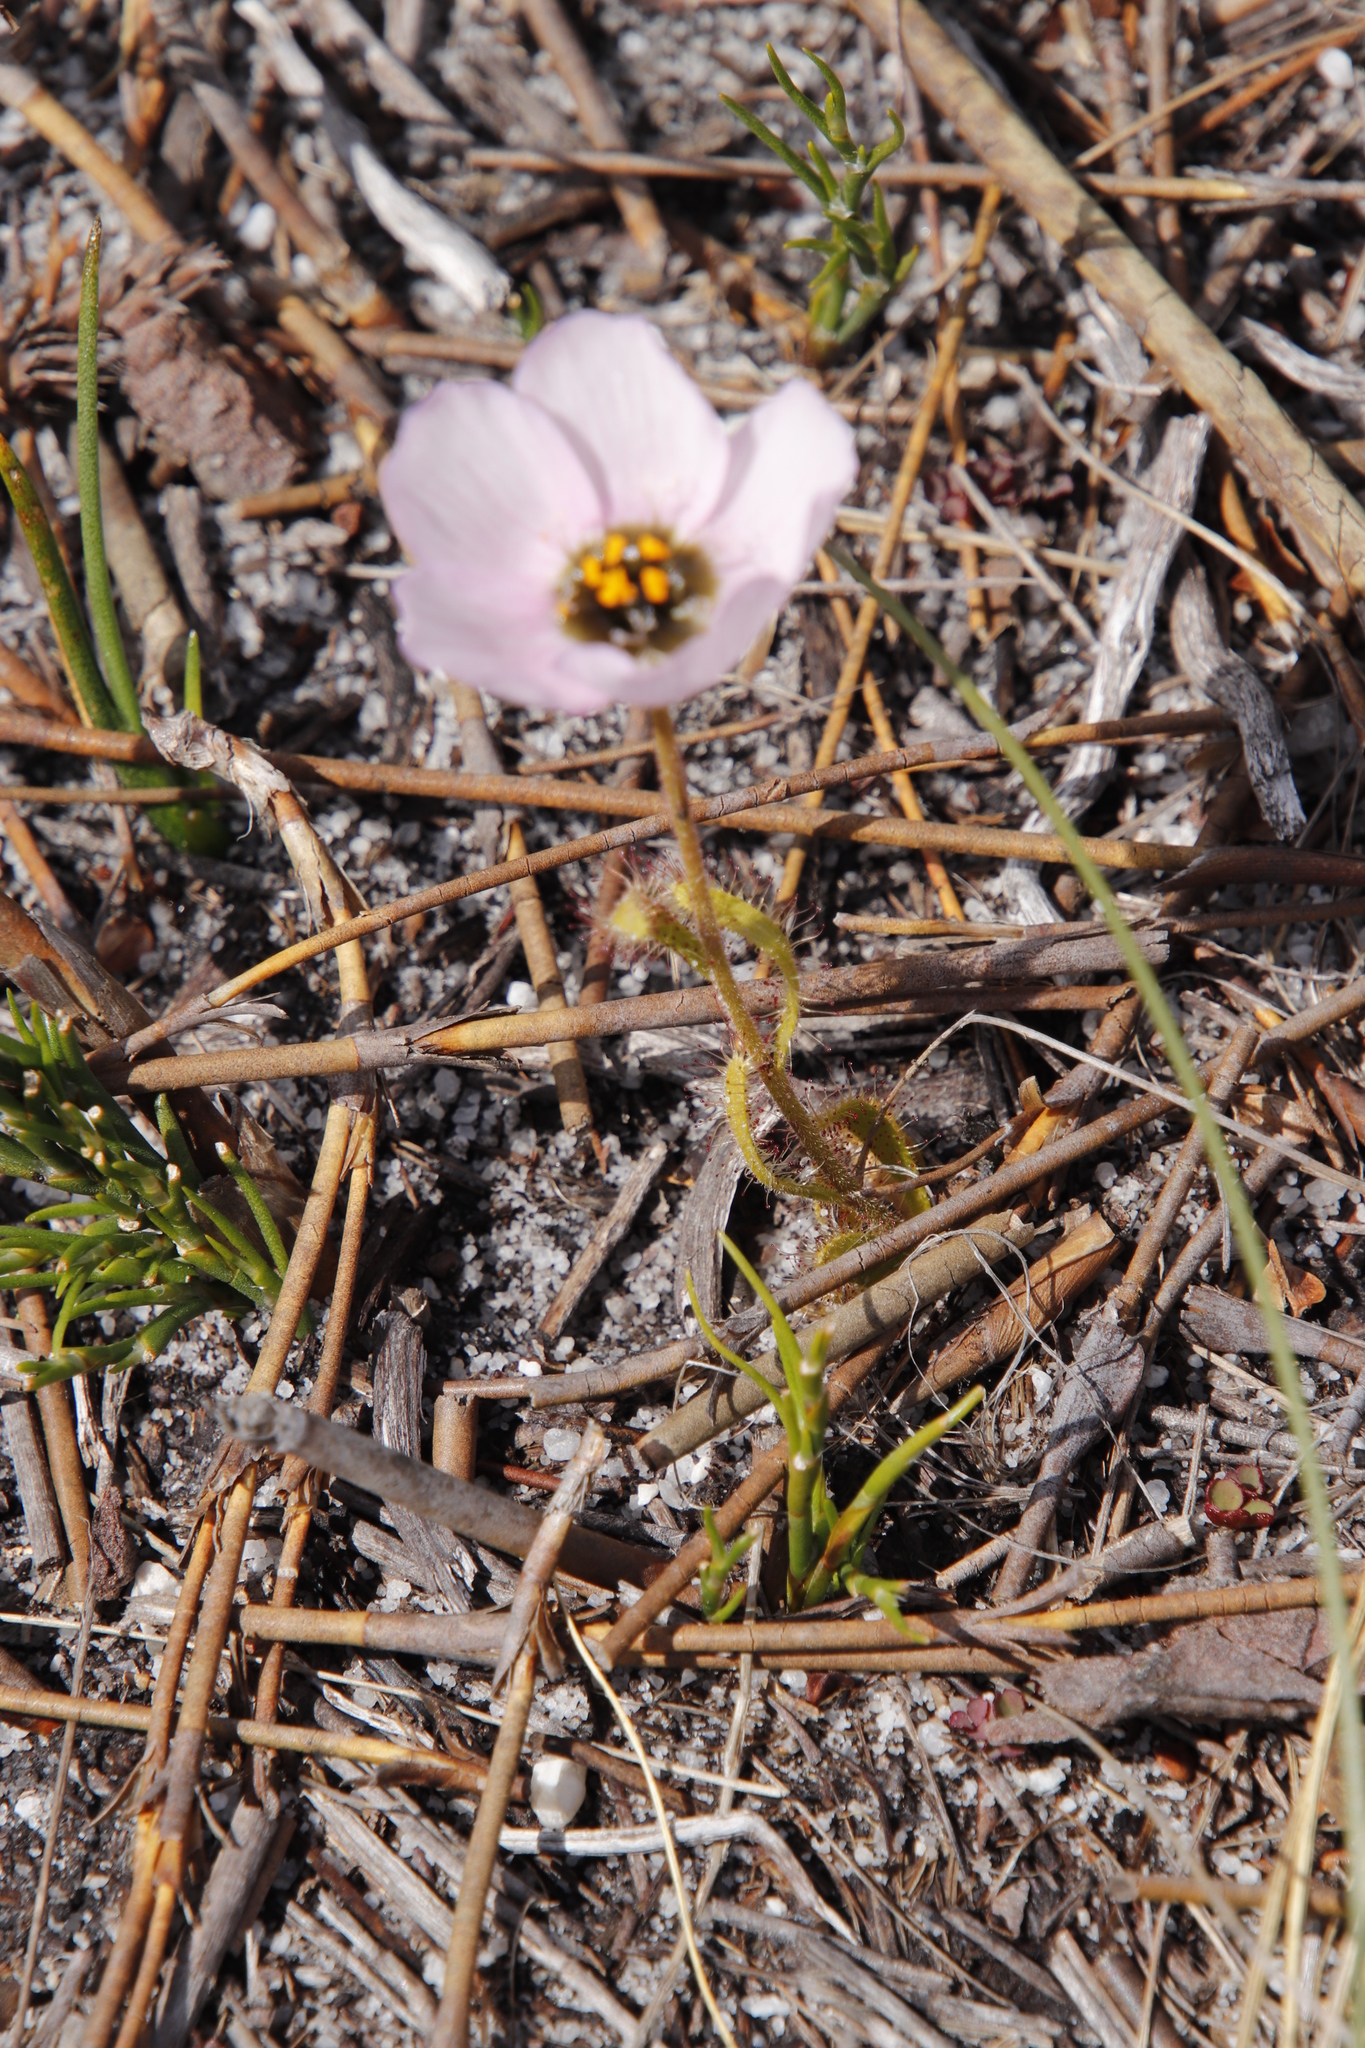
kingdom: Plantae
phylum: Tracheophyta
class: Magnoliopsida
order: Caryophyllales
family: Droseraceae
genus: Drosera
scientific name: Drosera cistiflora
